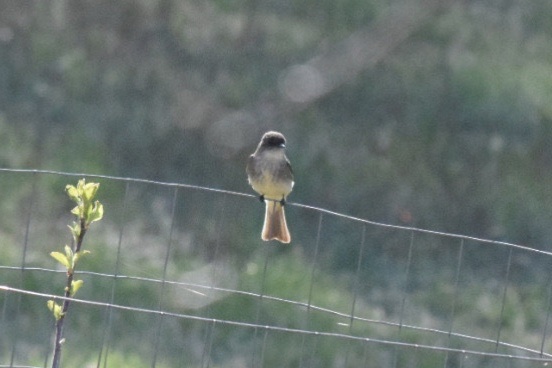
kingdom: Animalia
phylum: Chordata
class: Aves
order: Passeriformes
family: Tyrannidae
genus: Sayornis
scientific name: Sayornis phoebe
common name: Eastern phoebe
